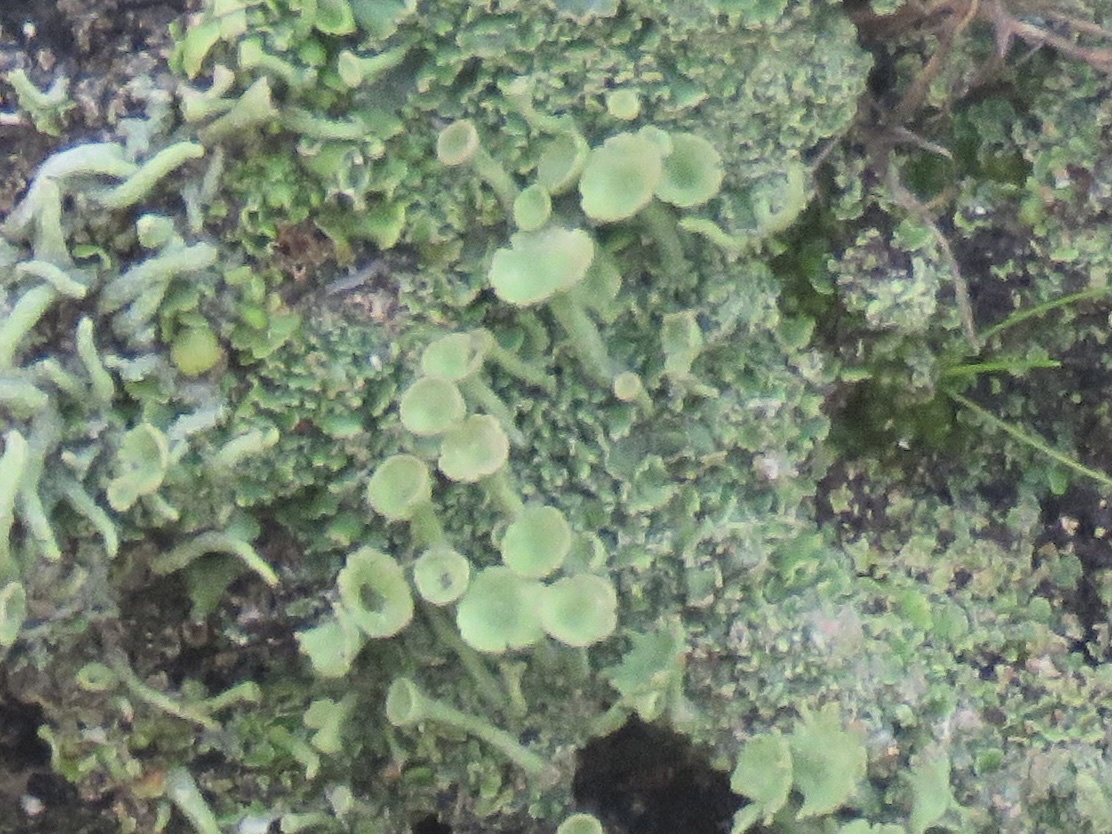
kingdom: Fungi
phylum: Ascomycota
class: Lecanoromycetes
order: Lecanorales
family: Cladoniaceae
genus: Cladonia
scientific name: Cladonia fimbriata
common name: Powdered trumpet lichen
